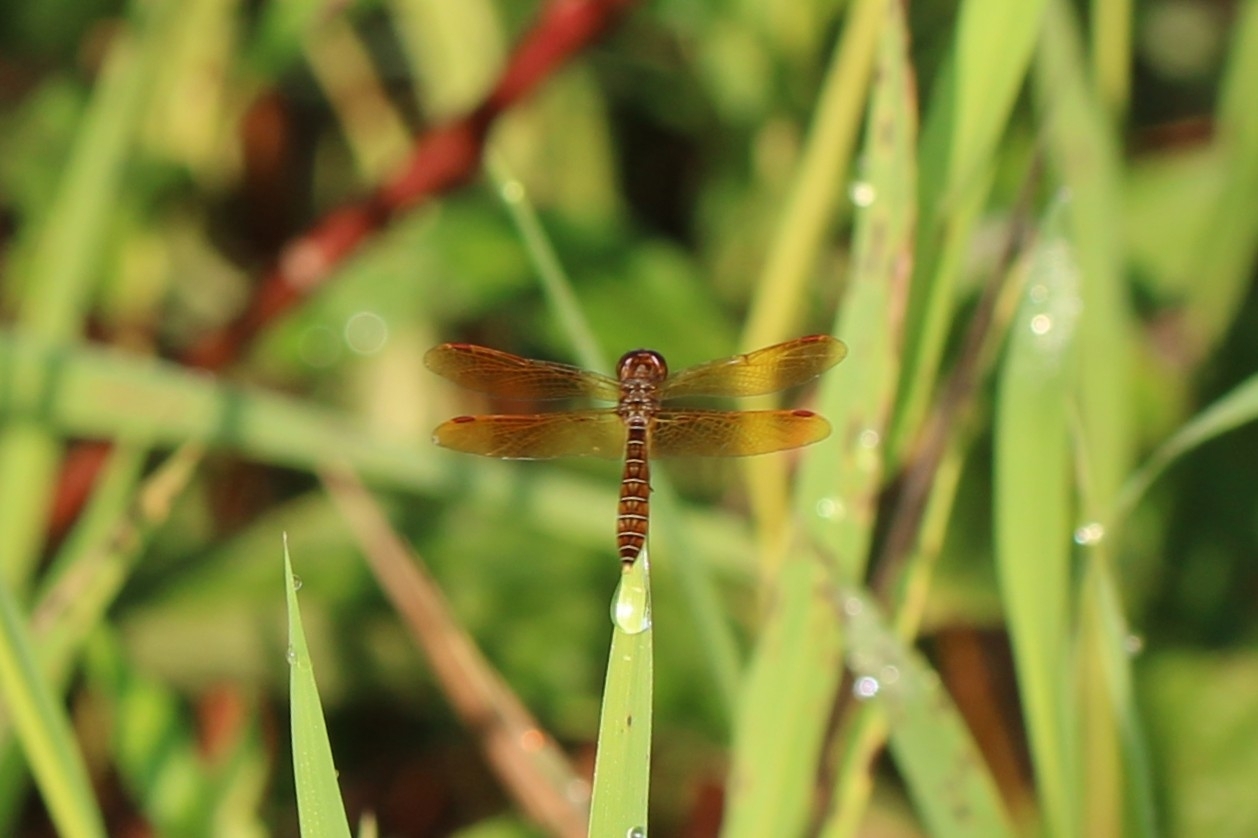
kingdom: Animalia
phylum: Arthropoda
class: Insecta
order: Odonata
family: Libellulidae
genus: Perithemis
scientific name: Perithemis tenera
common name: Eastern amberwing
